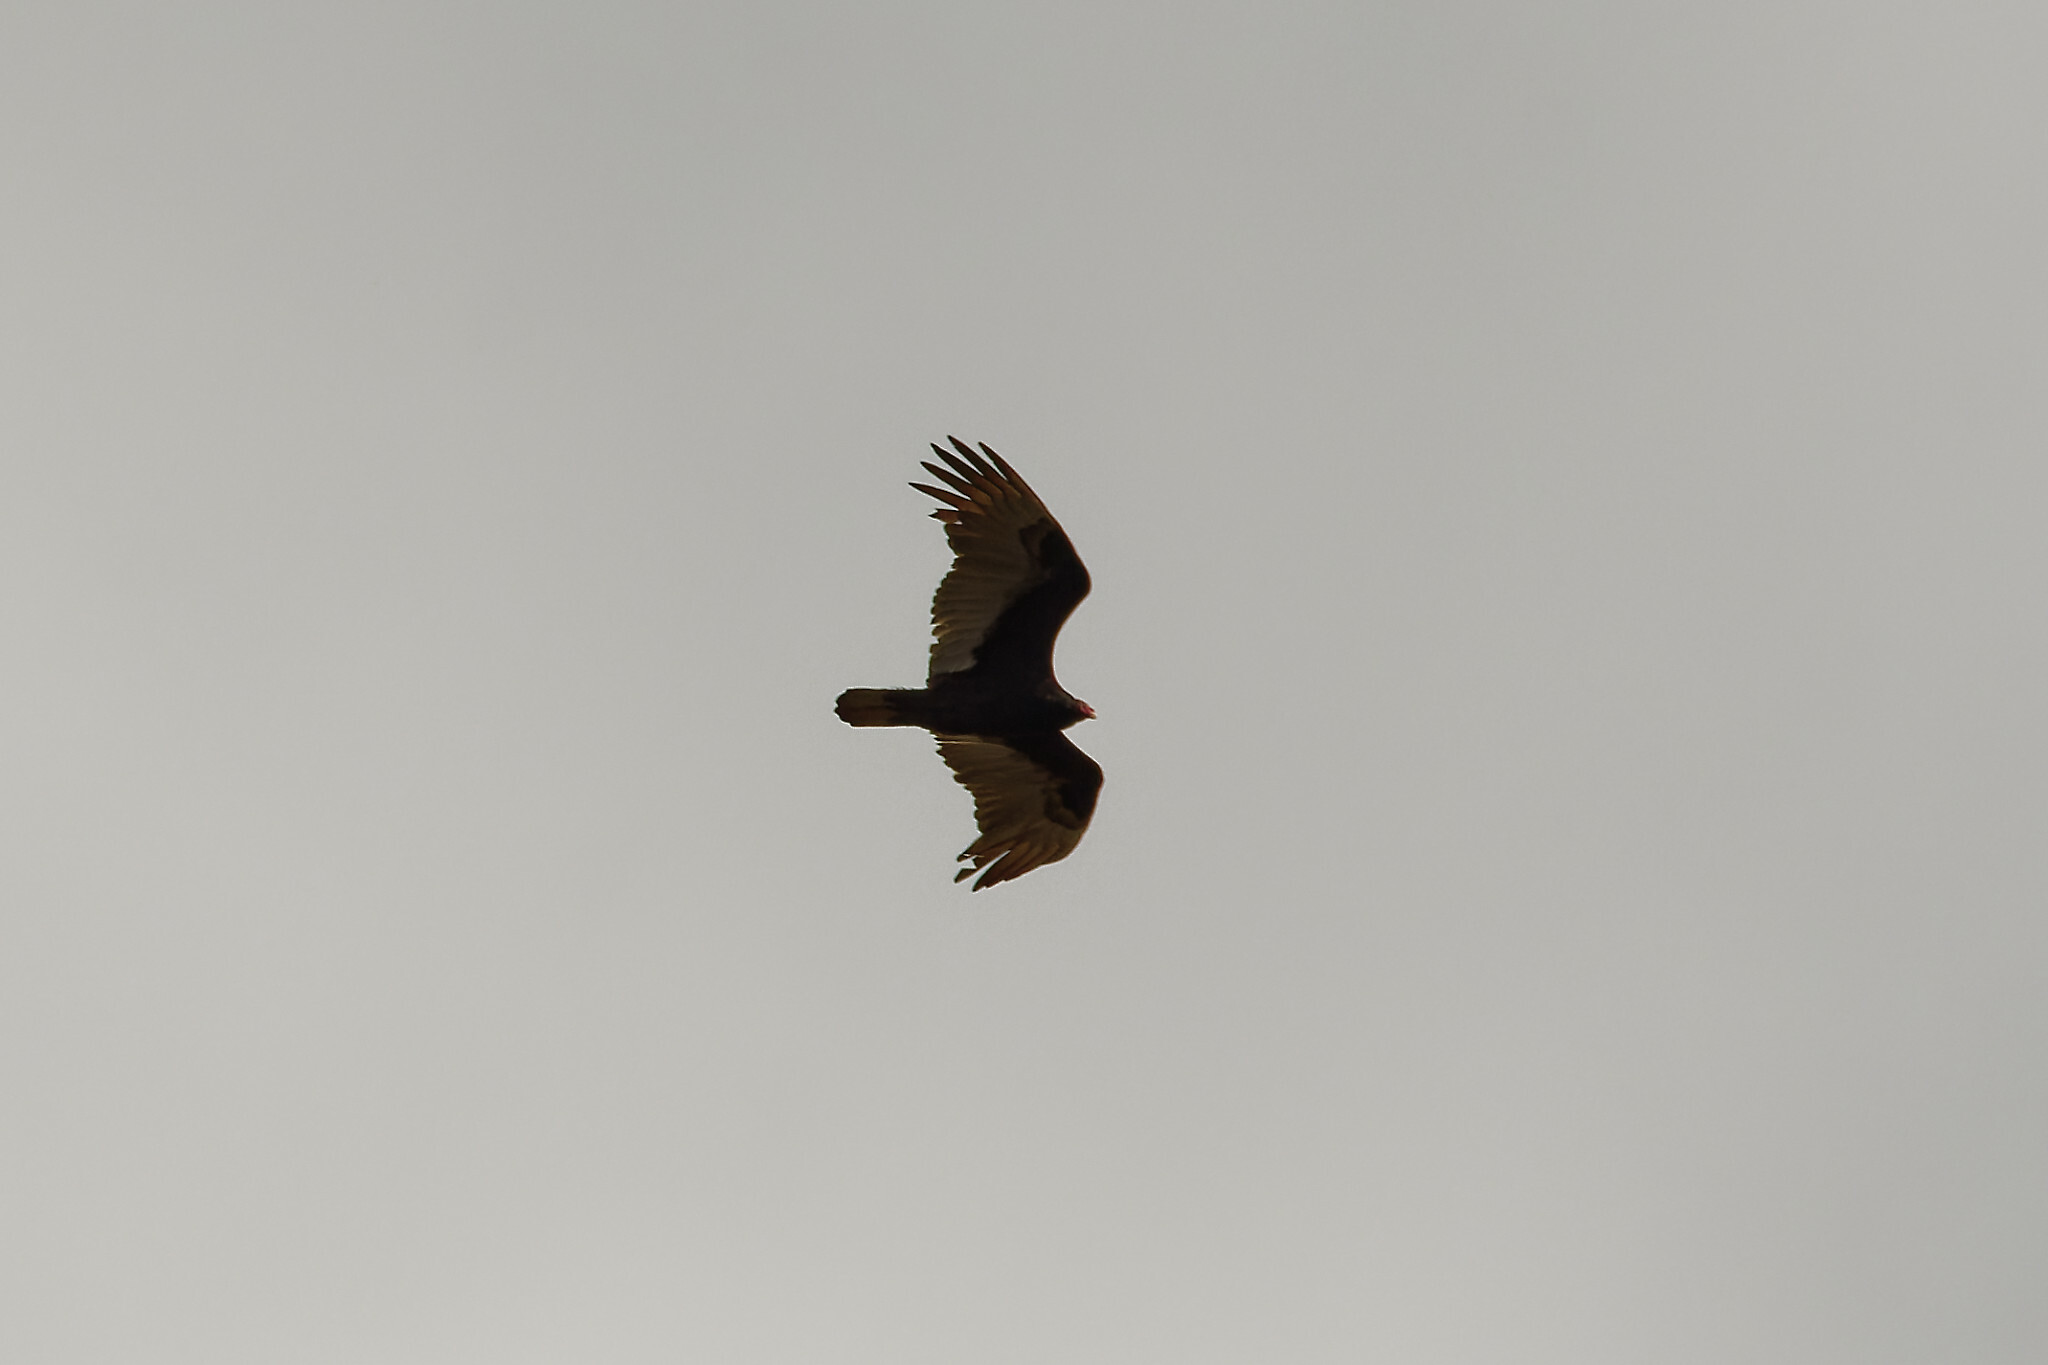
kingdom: Animalia
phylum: Chordata
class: Aves
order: Accipitriformes
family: Cathartidae
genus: Cathartes
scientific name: Cathartes aura
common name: Turkey vulture
